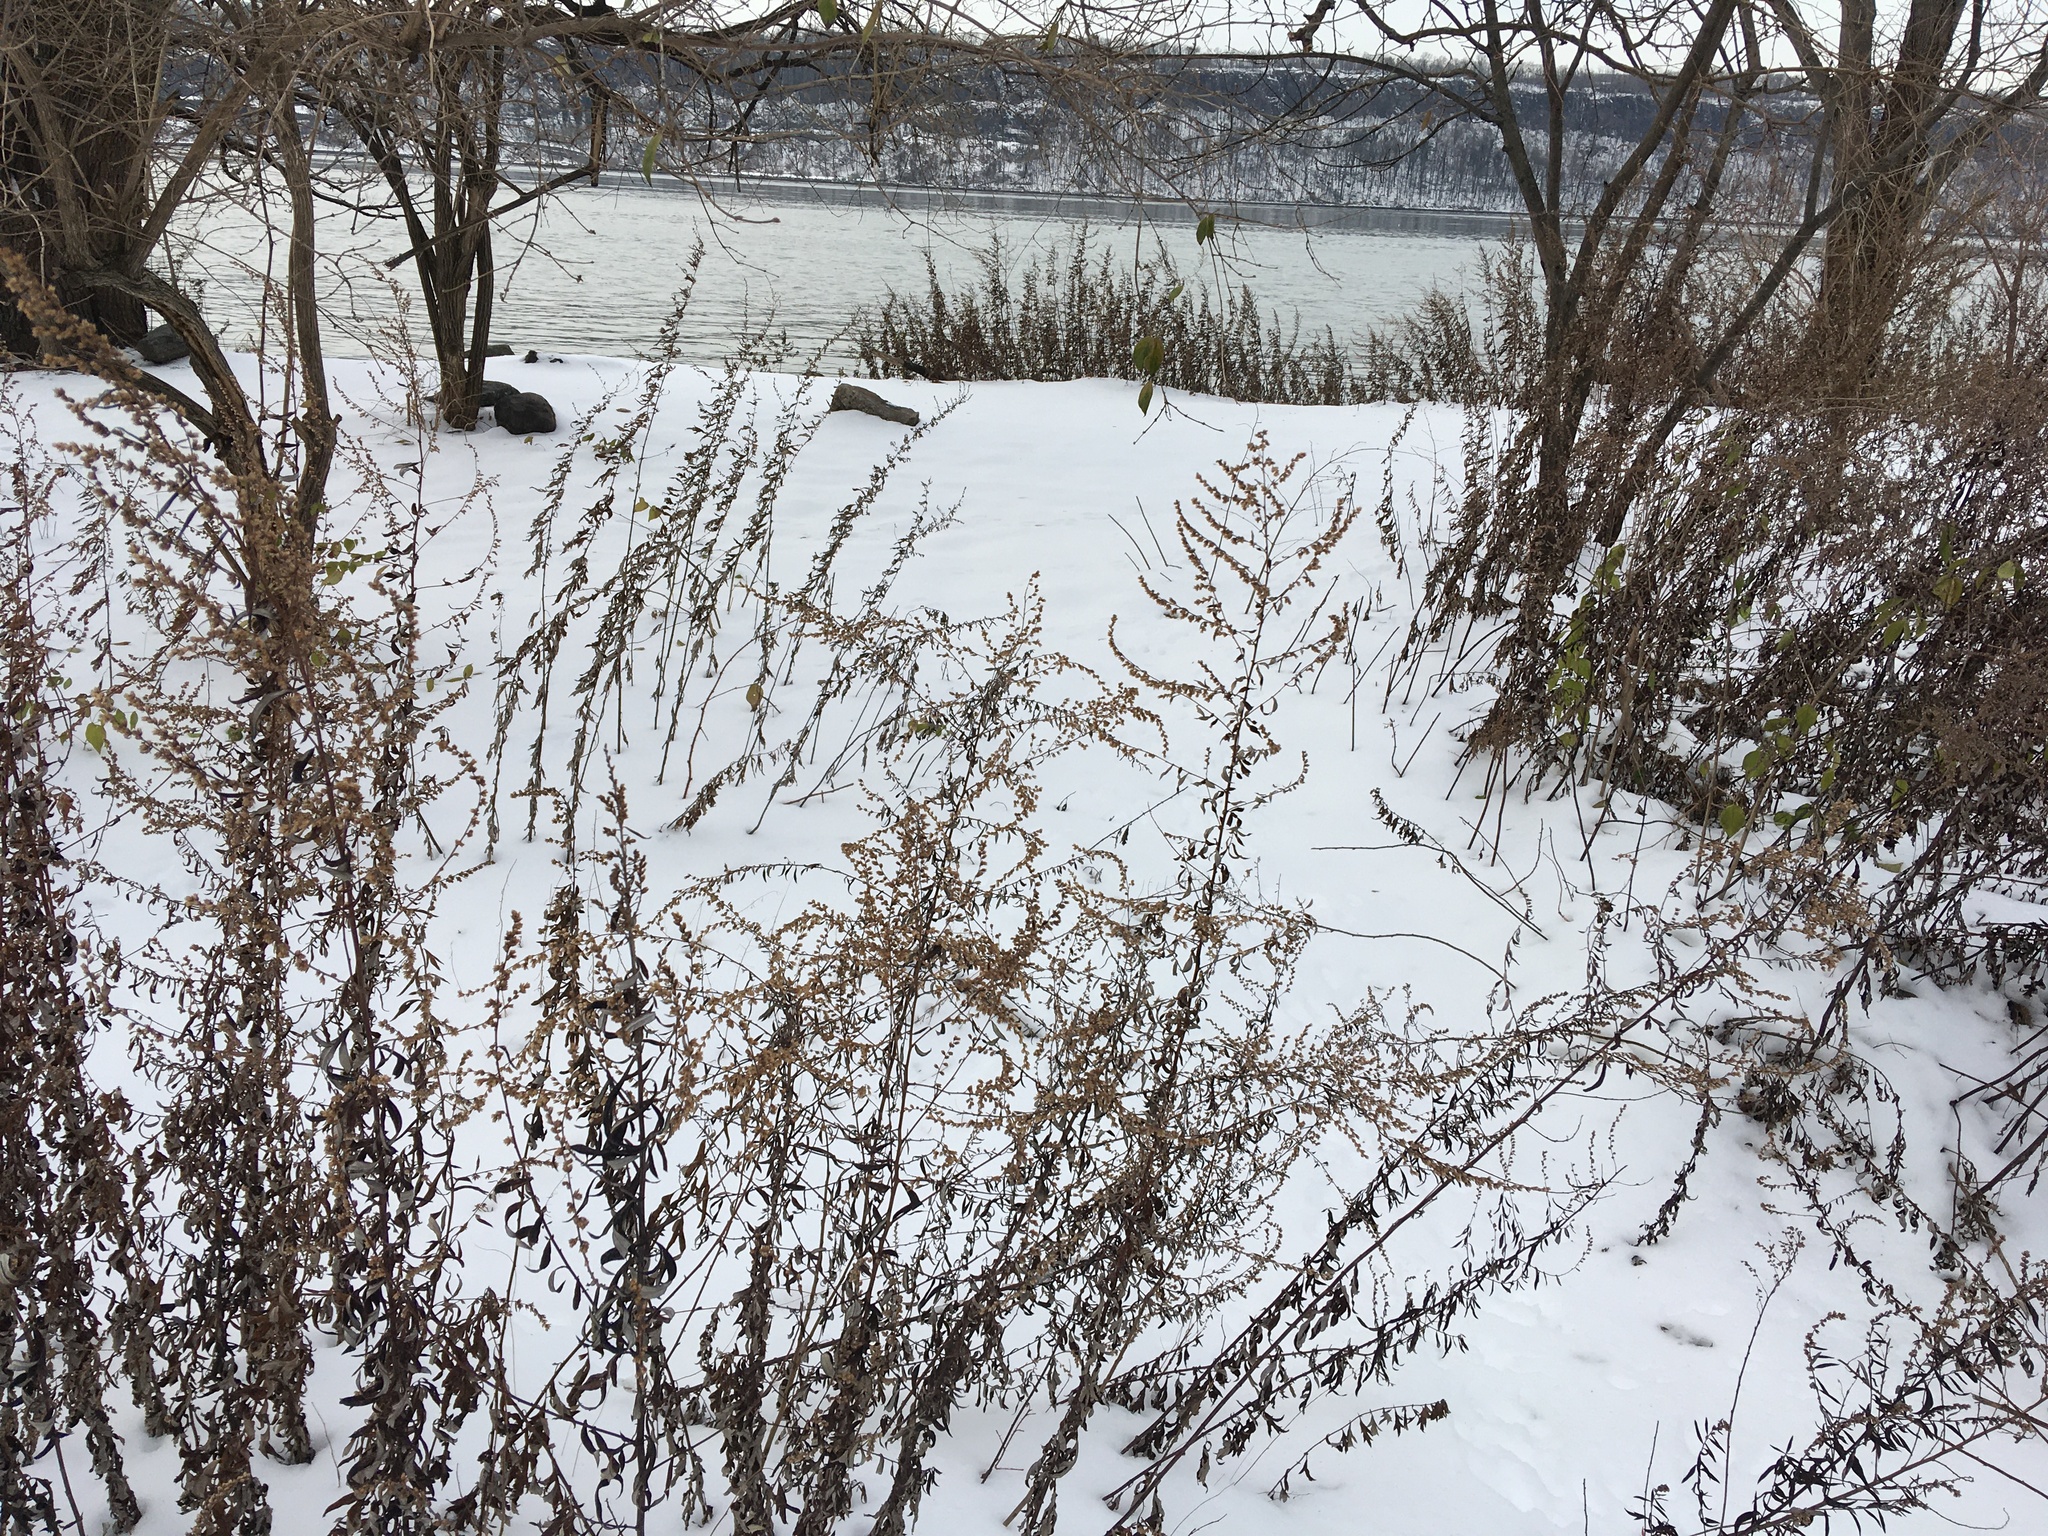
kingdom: Plantae
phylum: Tracheophyta
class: Magnoliopsida
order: Asterales
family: Asteraceae
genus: Artemisia
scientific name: Artemisia vulgaris
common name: Mugwort
